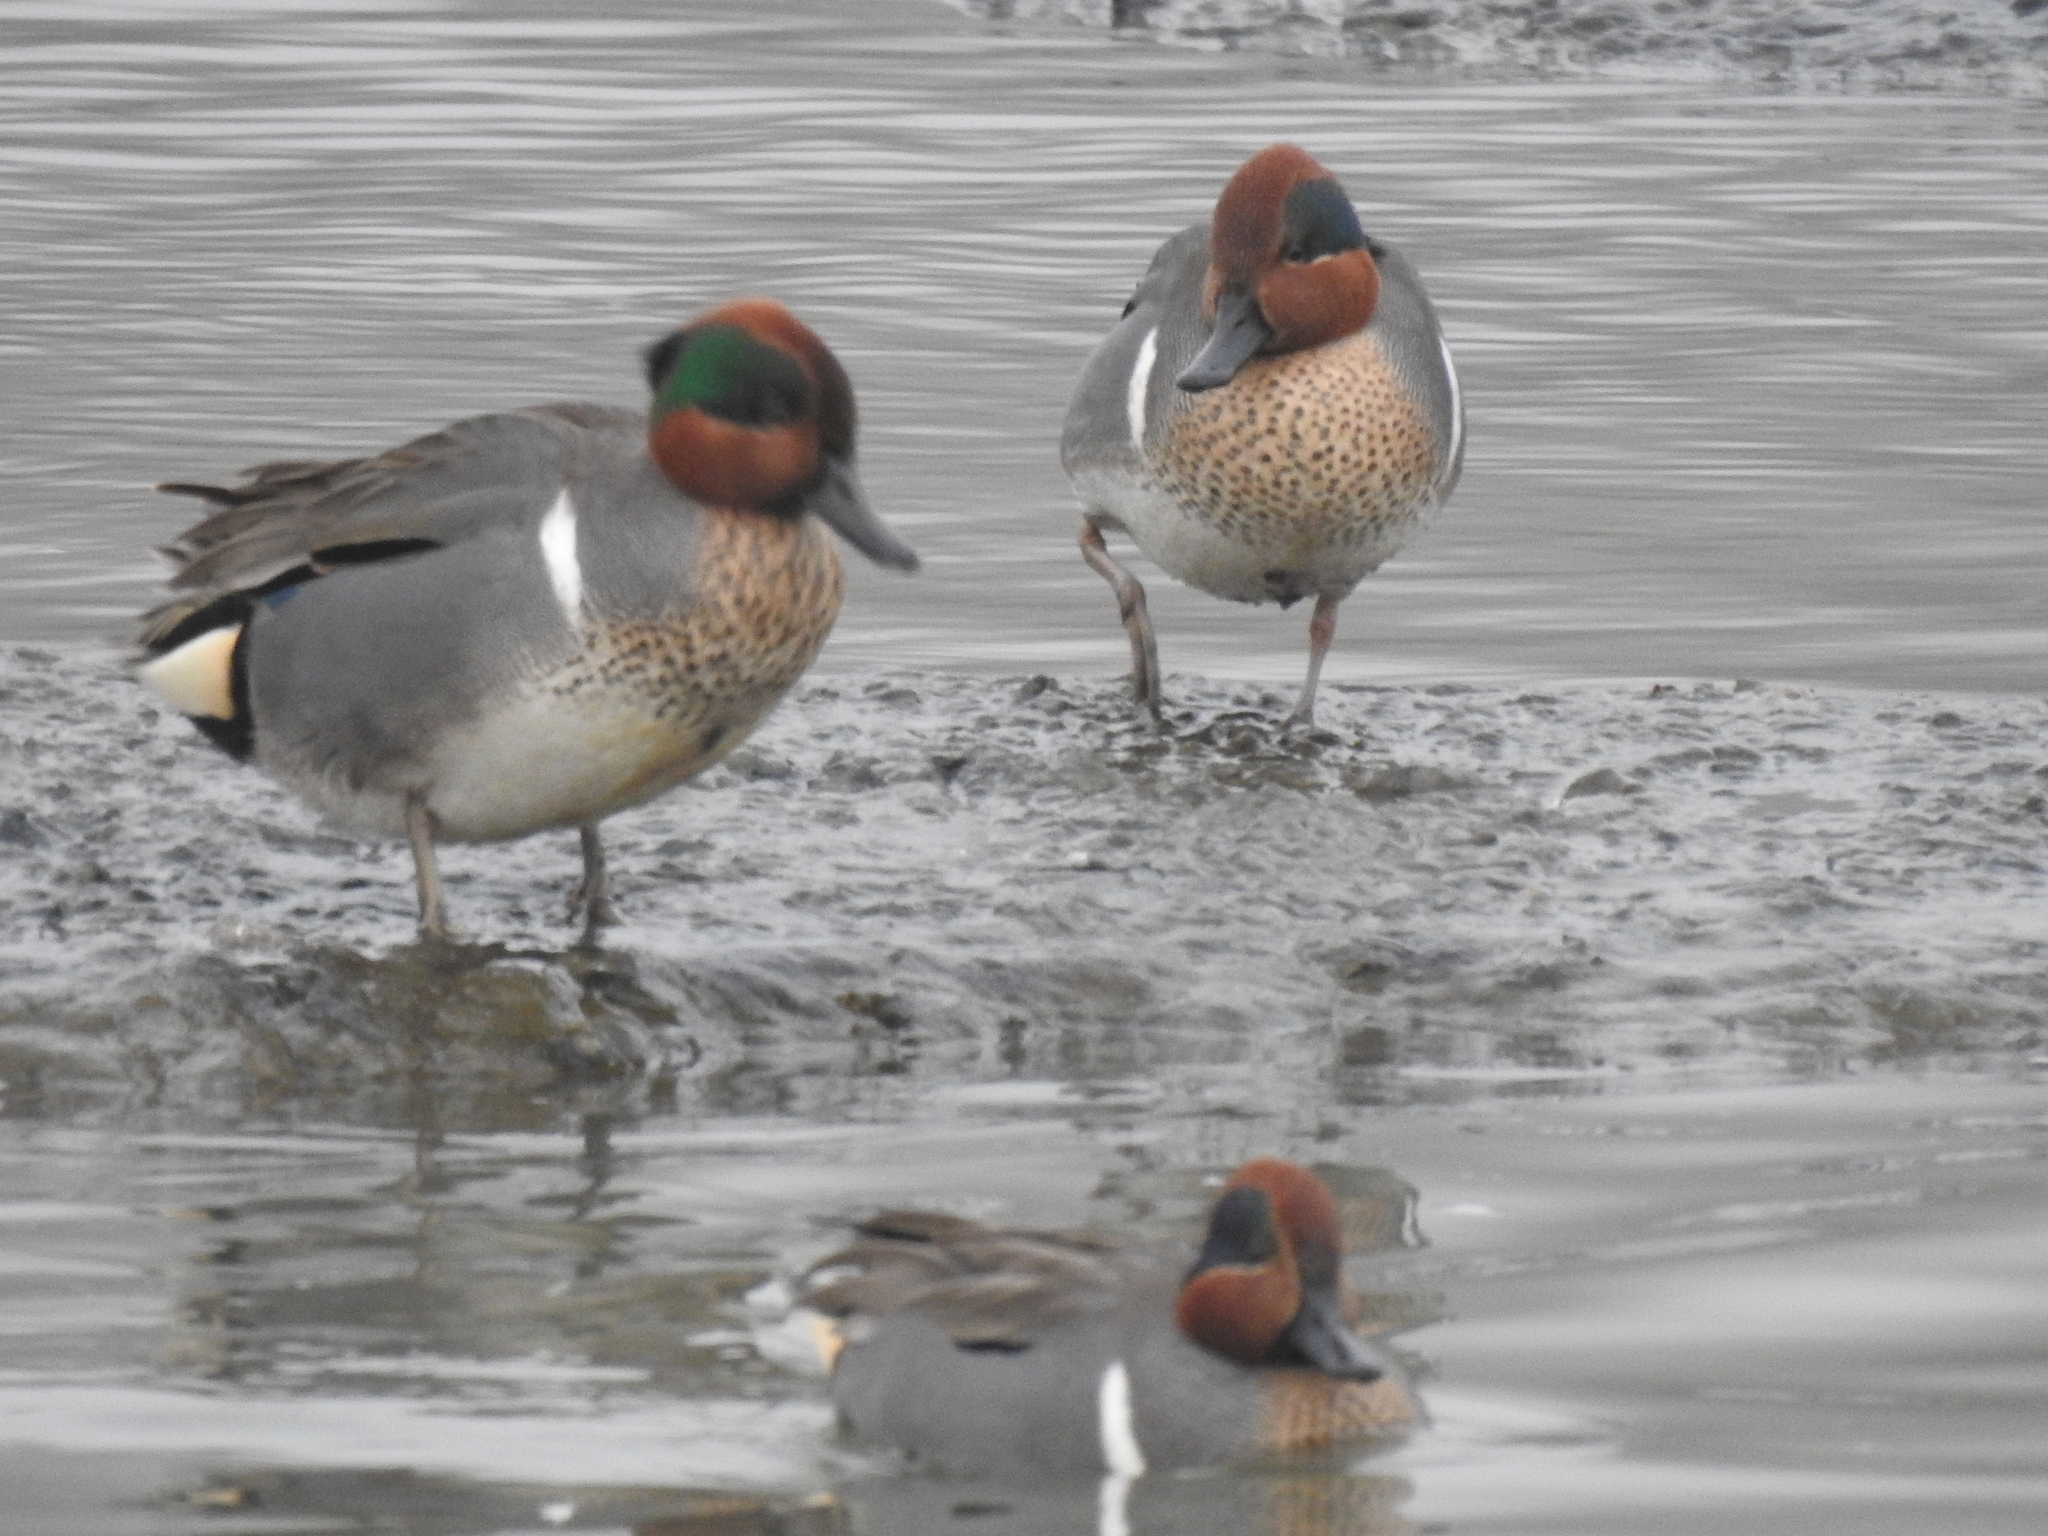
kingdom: Animalia
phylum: Chordata
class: Aves
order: Anseriformes
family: Anatidae
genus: Anas
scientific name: Anas crecca
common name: Eurasian teal
